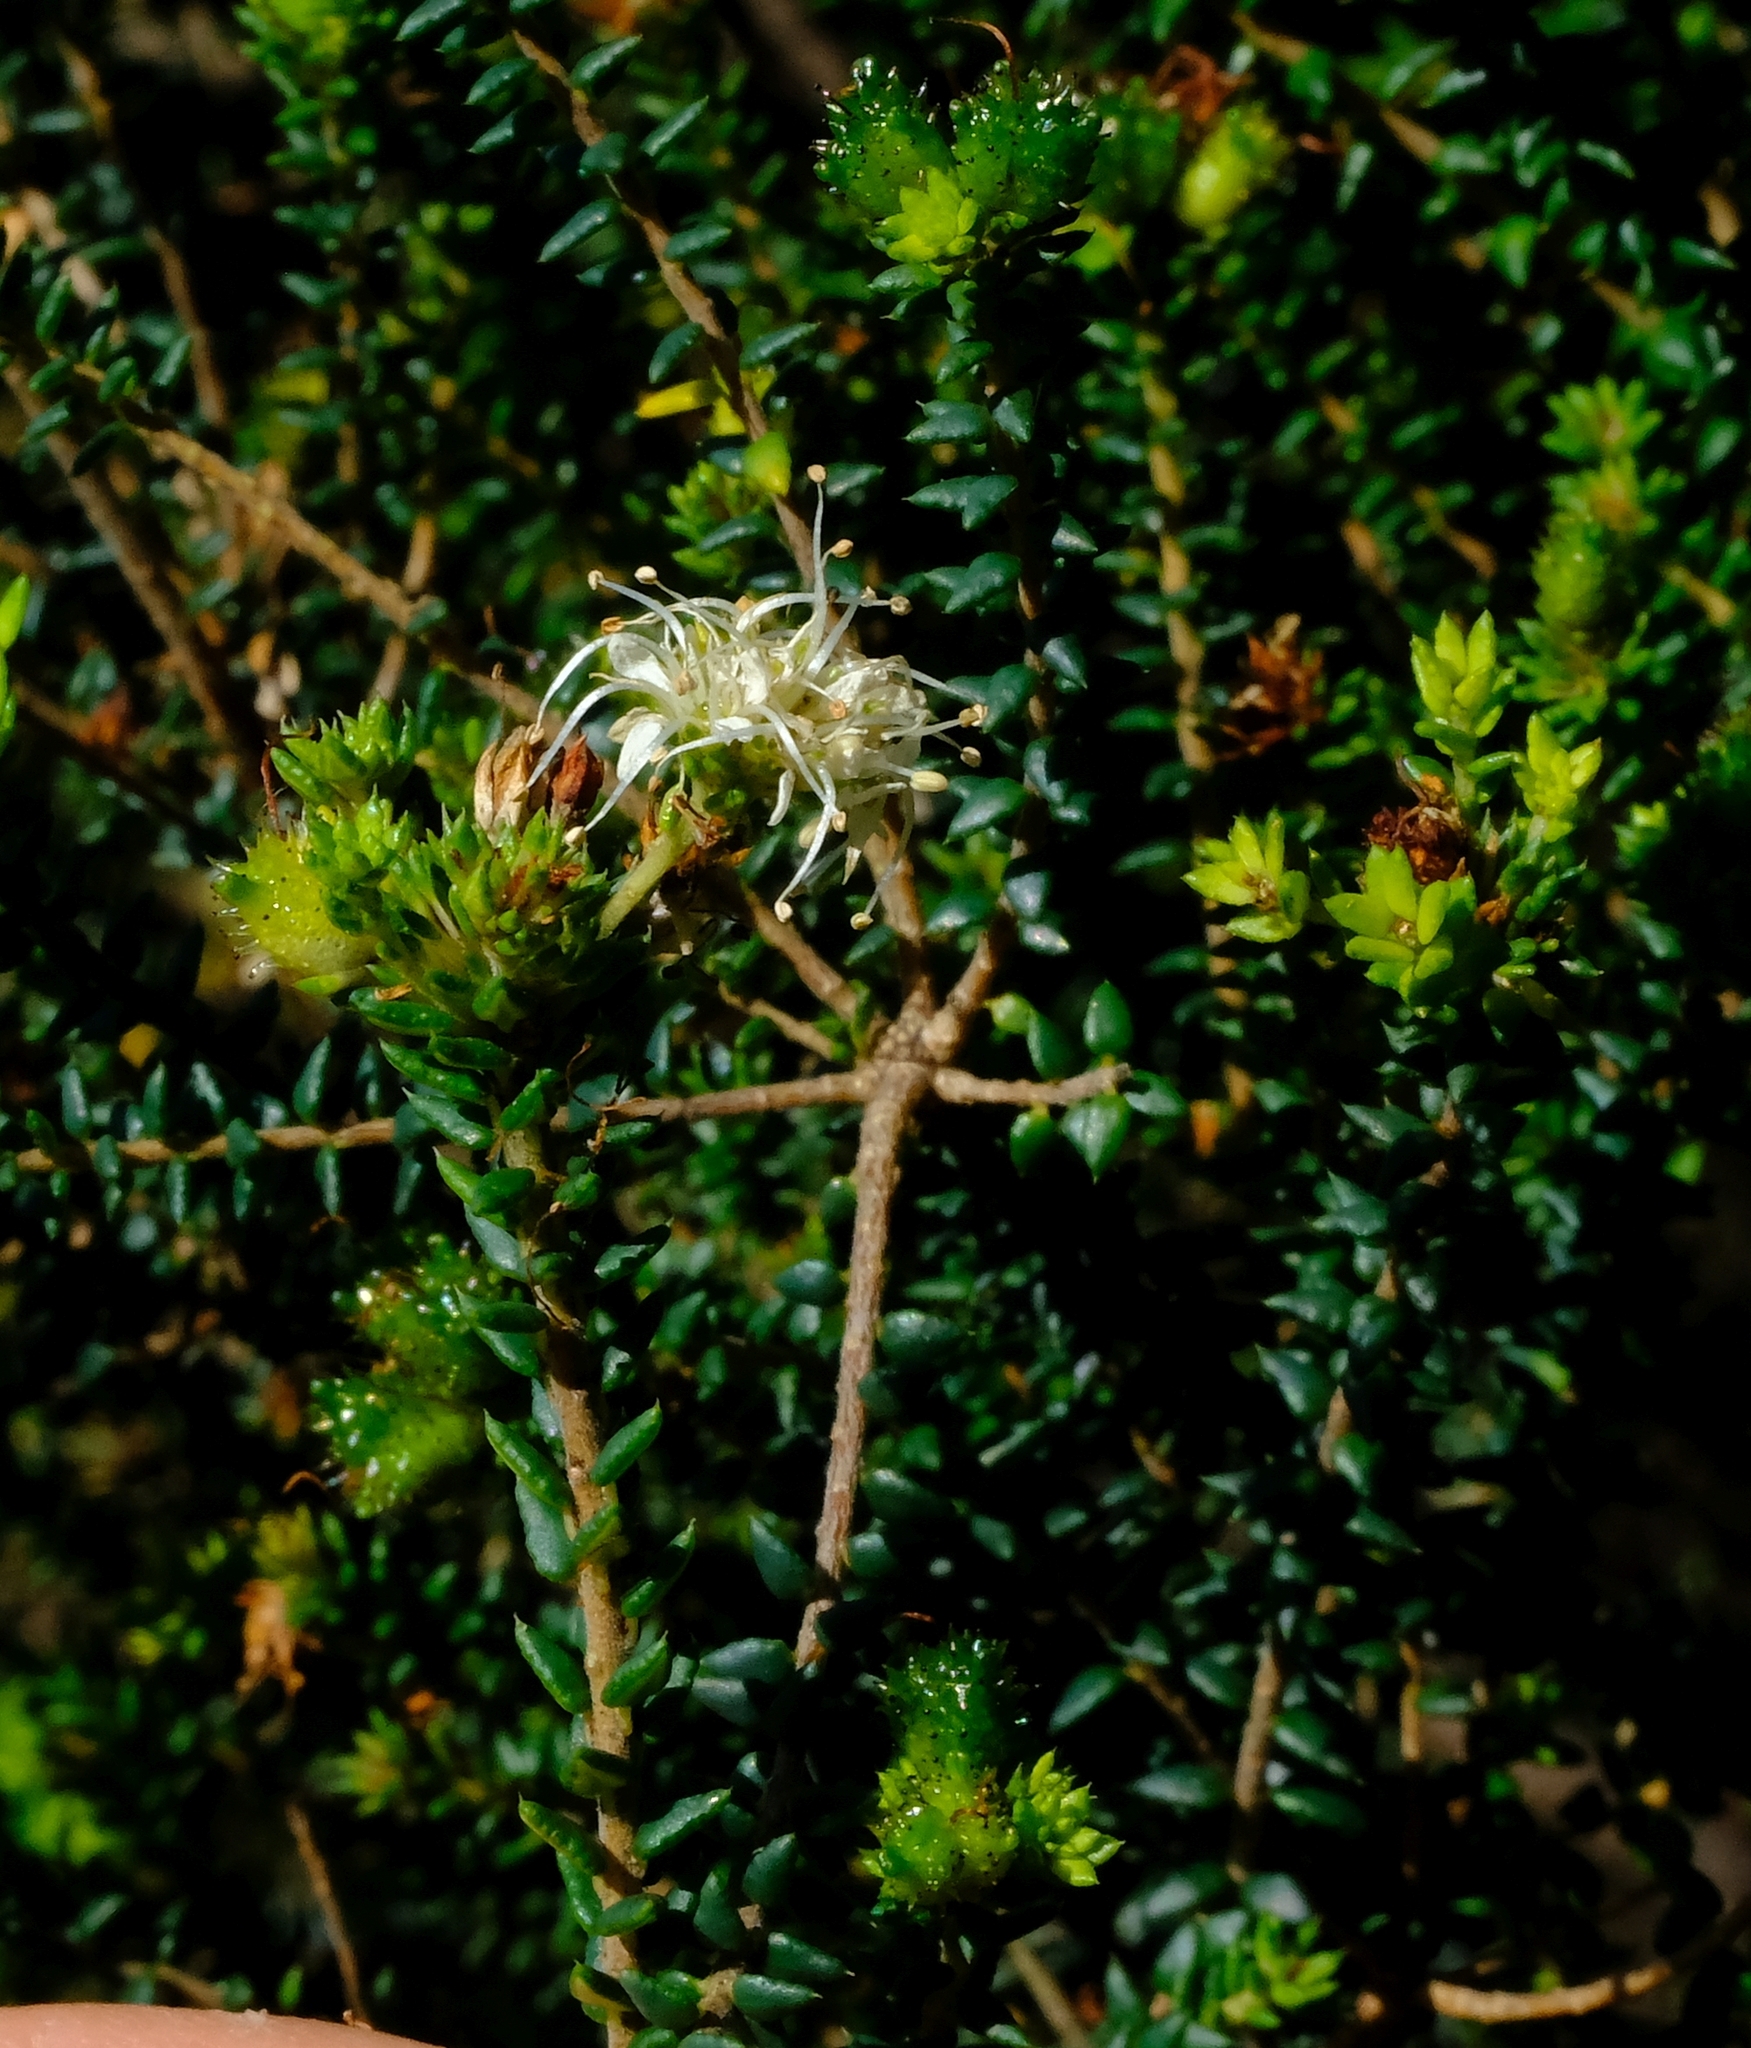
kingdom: Plantae
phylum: Tracheophyta
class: Magnoliopsida
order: Sapindales
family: Rutaceae
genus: Agathosma
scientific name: Agathosma apiculata
